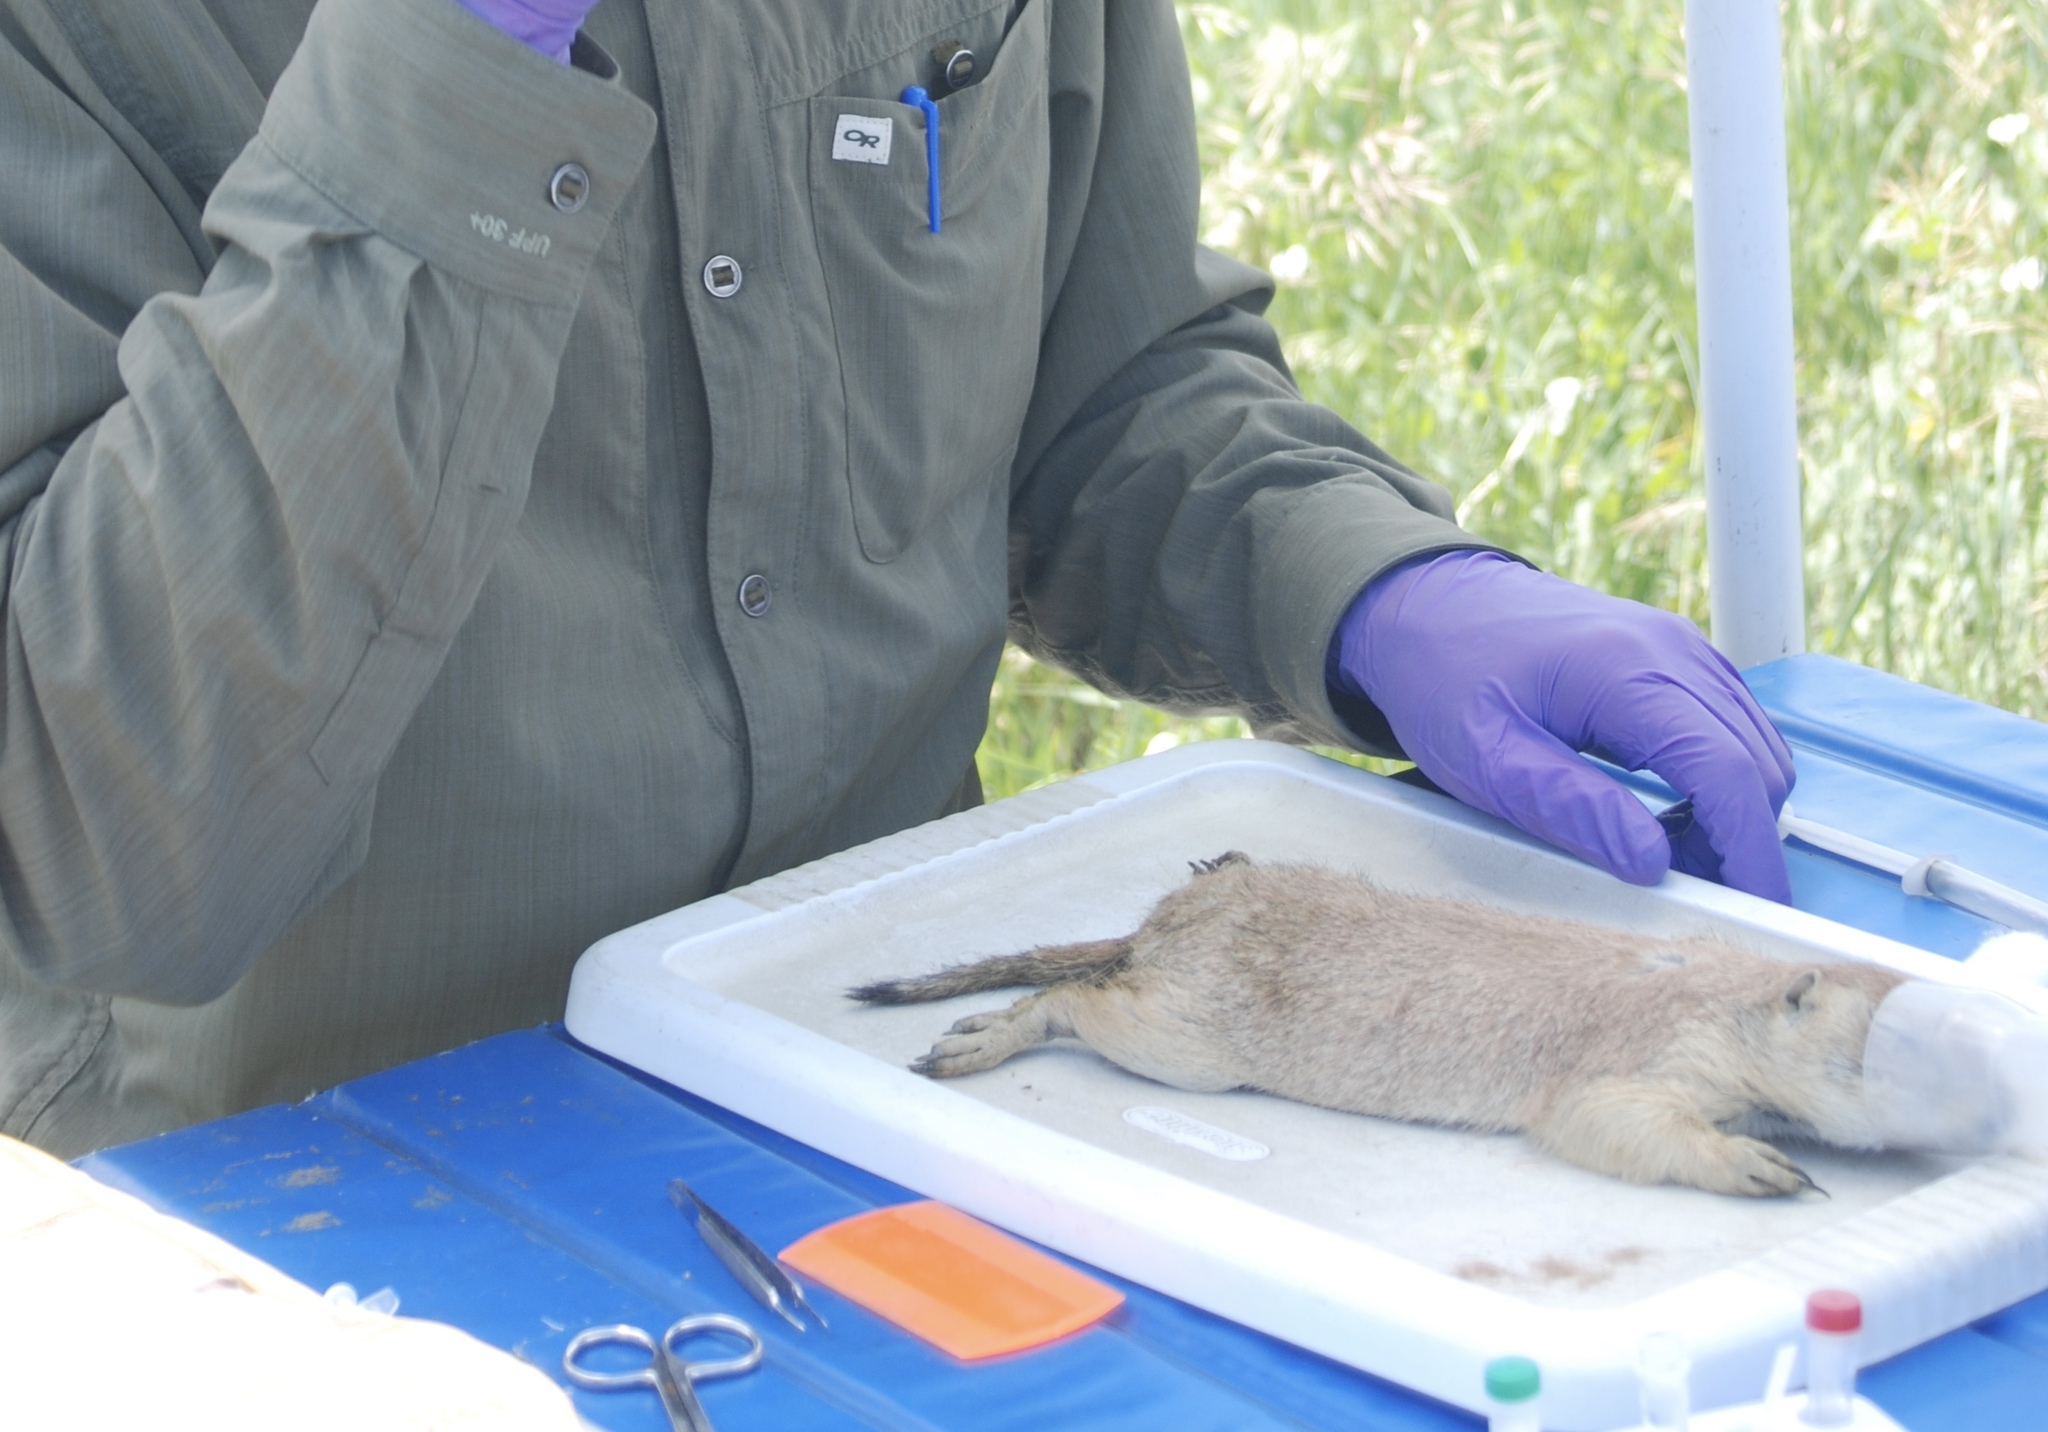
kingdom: Animalia
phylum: Chordata
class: Mammalia
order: Rodentia
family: Sciuridae
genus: Cynomys
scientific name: Cynomys ludovicianus
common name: Black-tailed prairie dog
